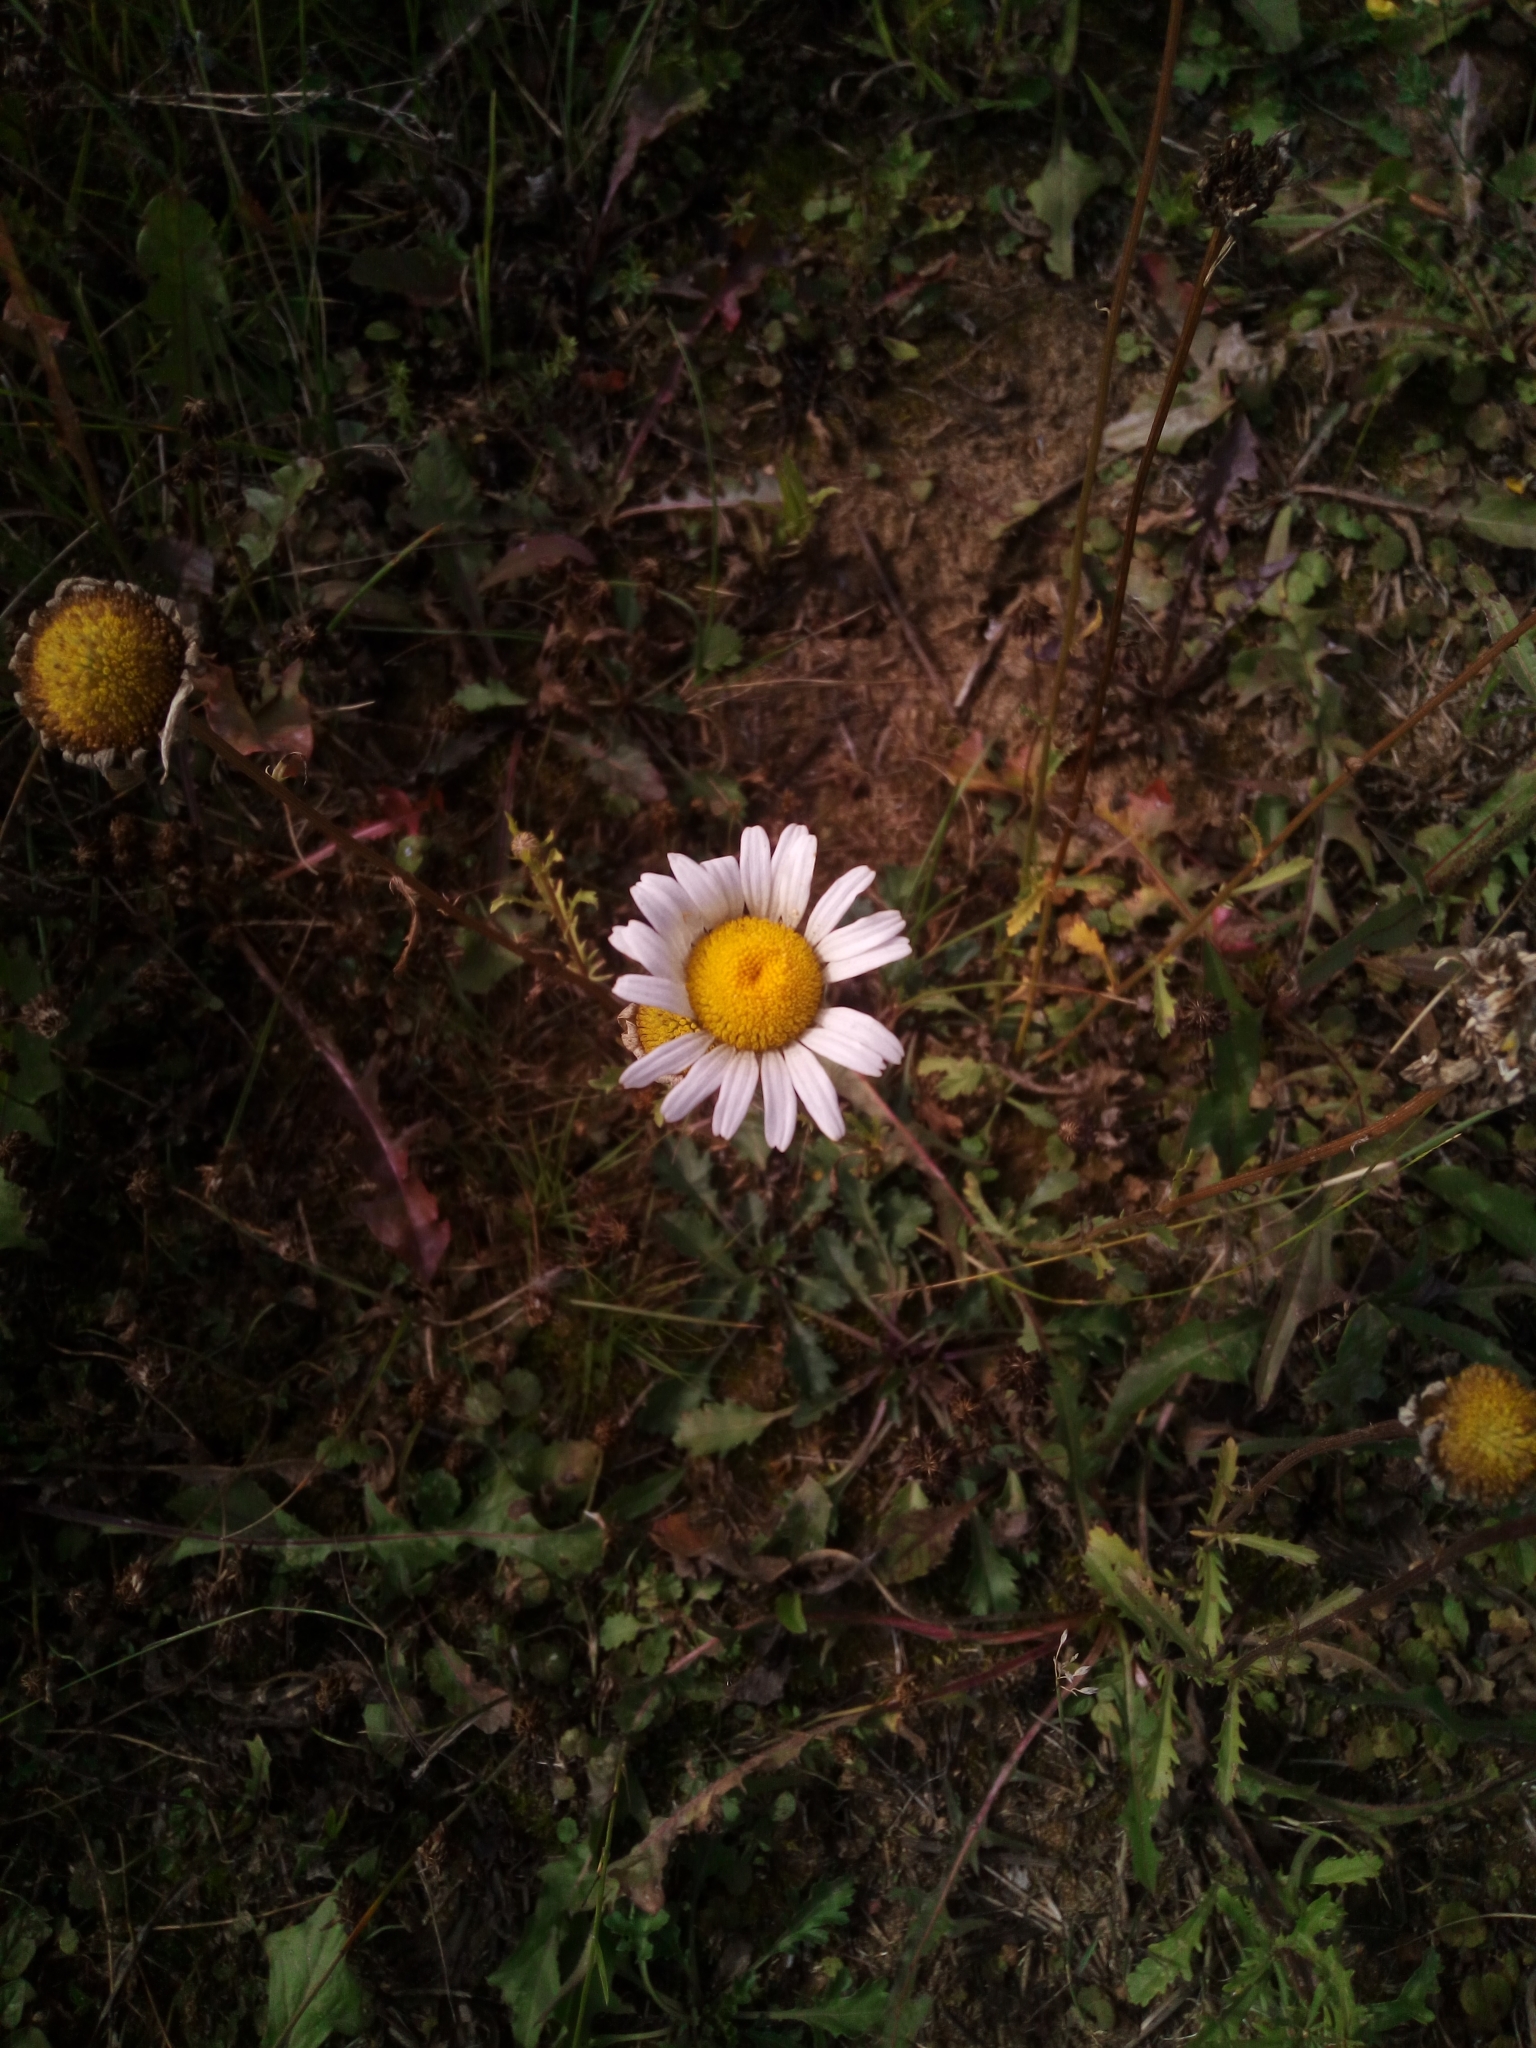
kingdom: Plantae
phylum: Tracheophyta
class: Magnoliopsida
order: Asterales
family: Asteraceae
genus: Leucanthemum
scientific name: Leucanthemum vulgare
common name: Oxeye daisy
